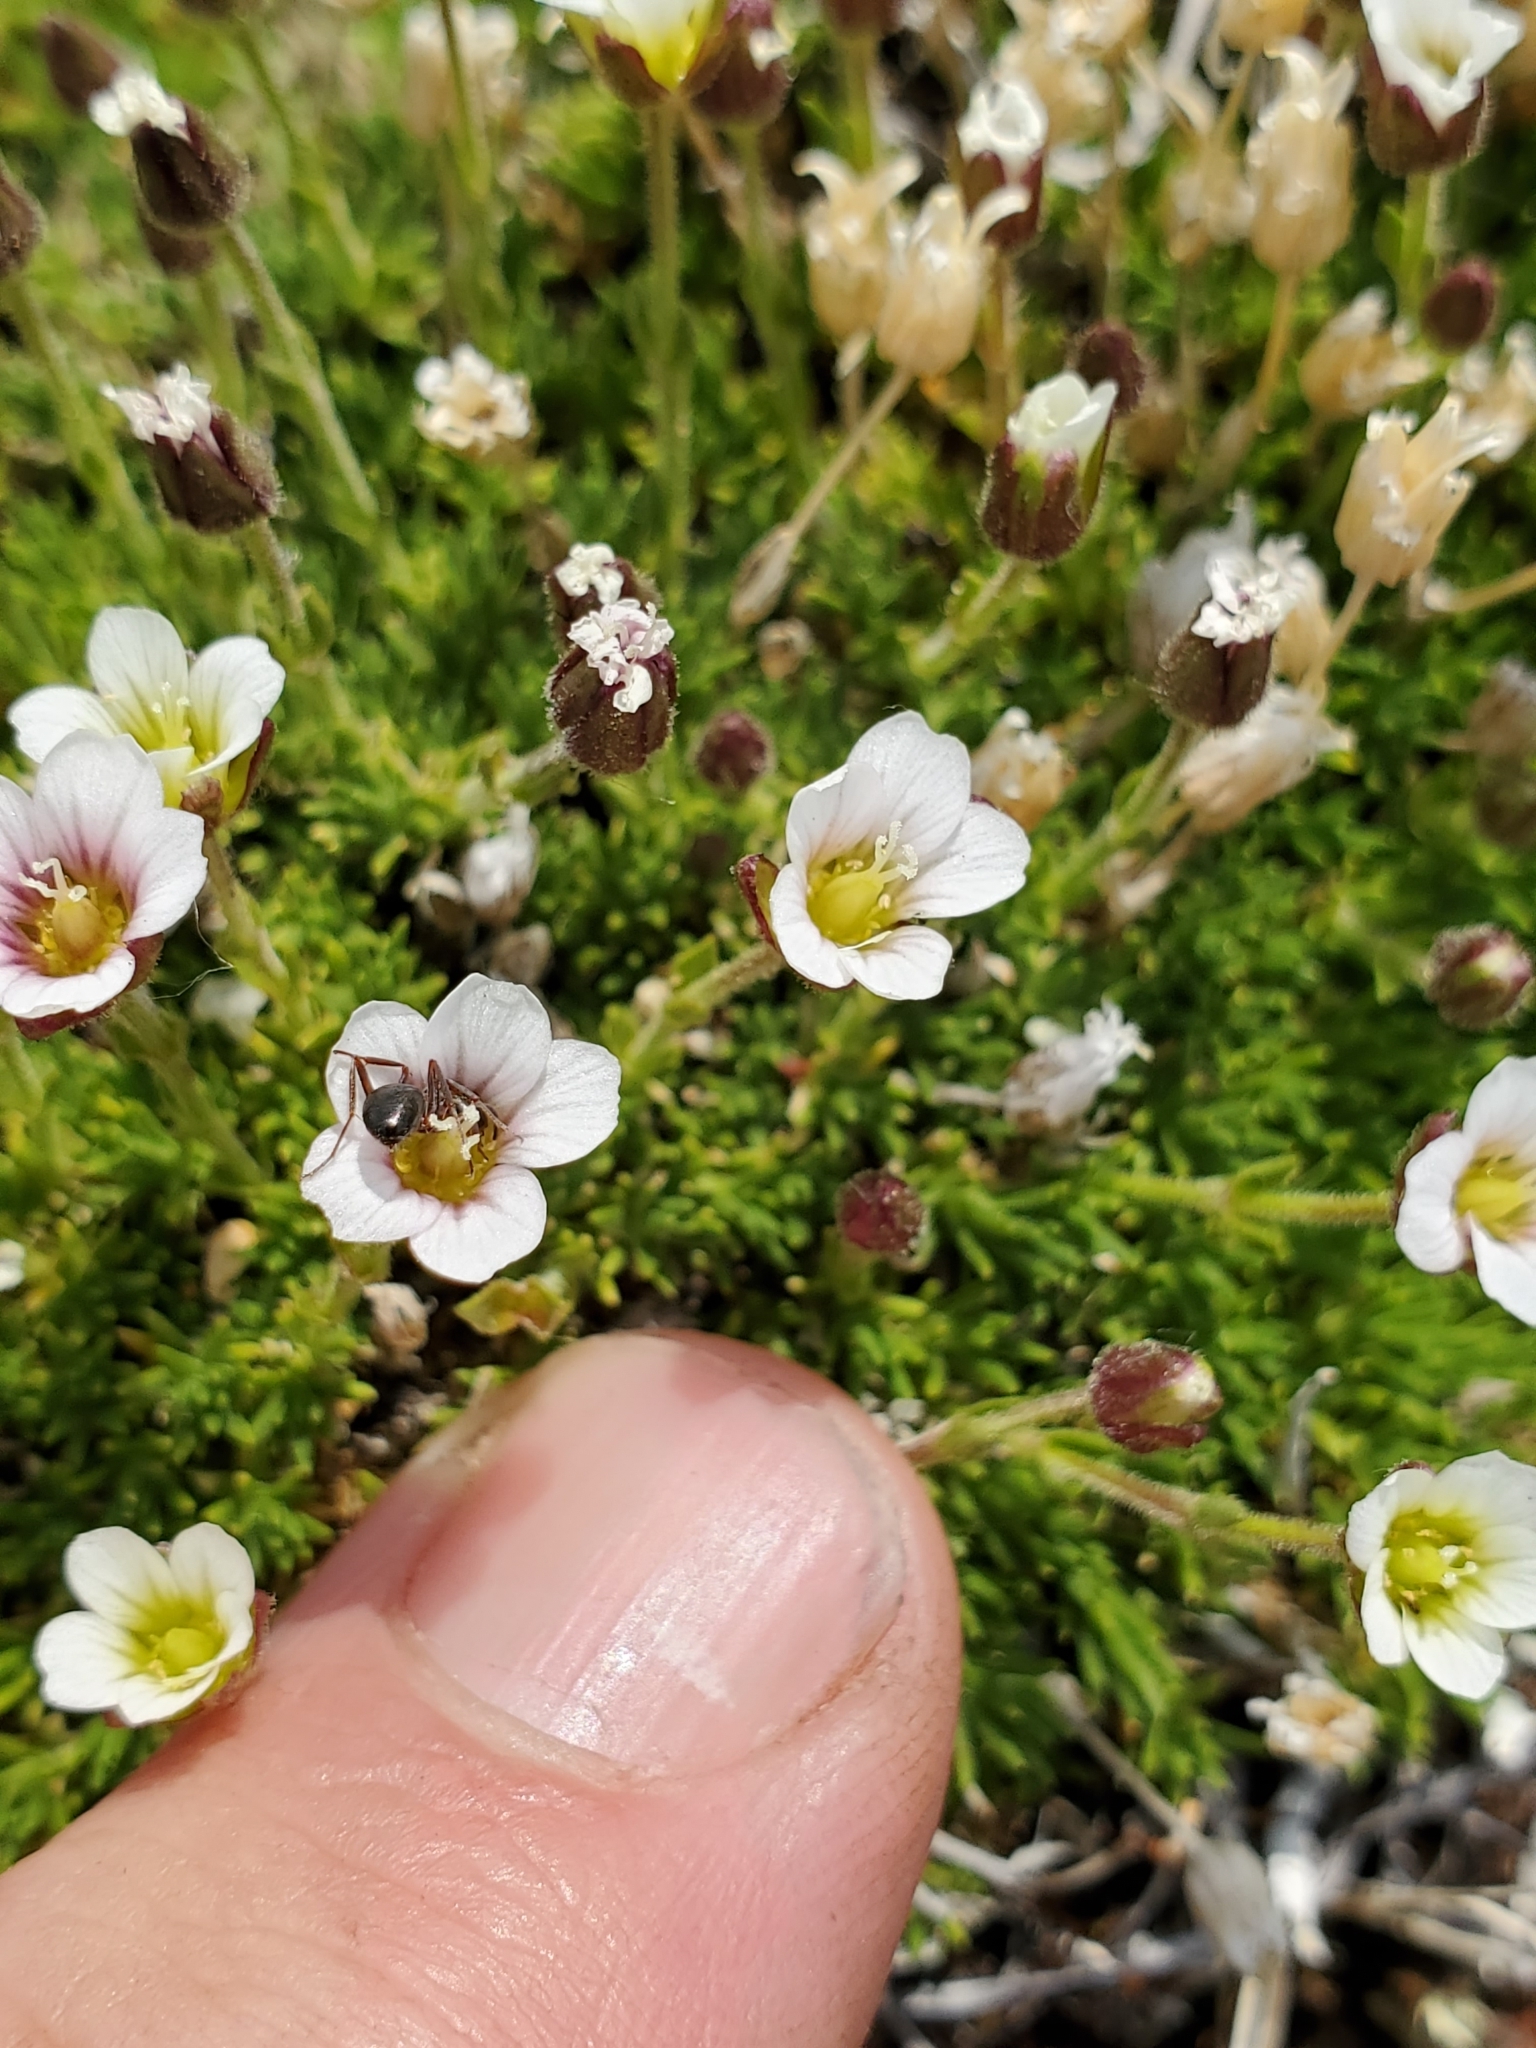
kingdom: Plantae
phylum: Tracheophyta
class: Magnoliopsida
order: Caryophyllales
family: Caryophyllaceae
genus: Cherleria
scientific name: Cherleria obtusiloba
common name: Alpine stitchwort
